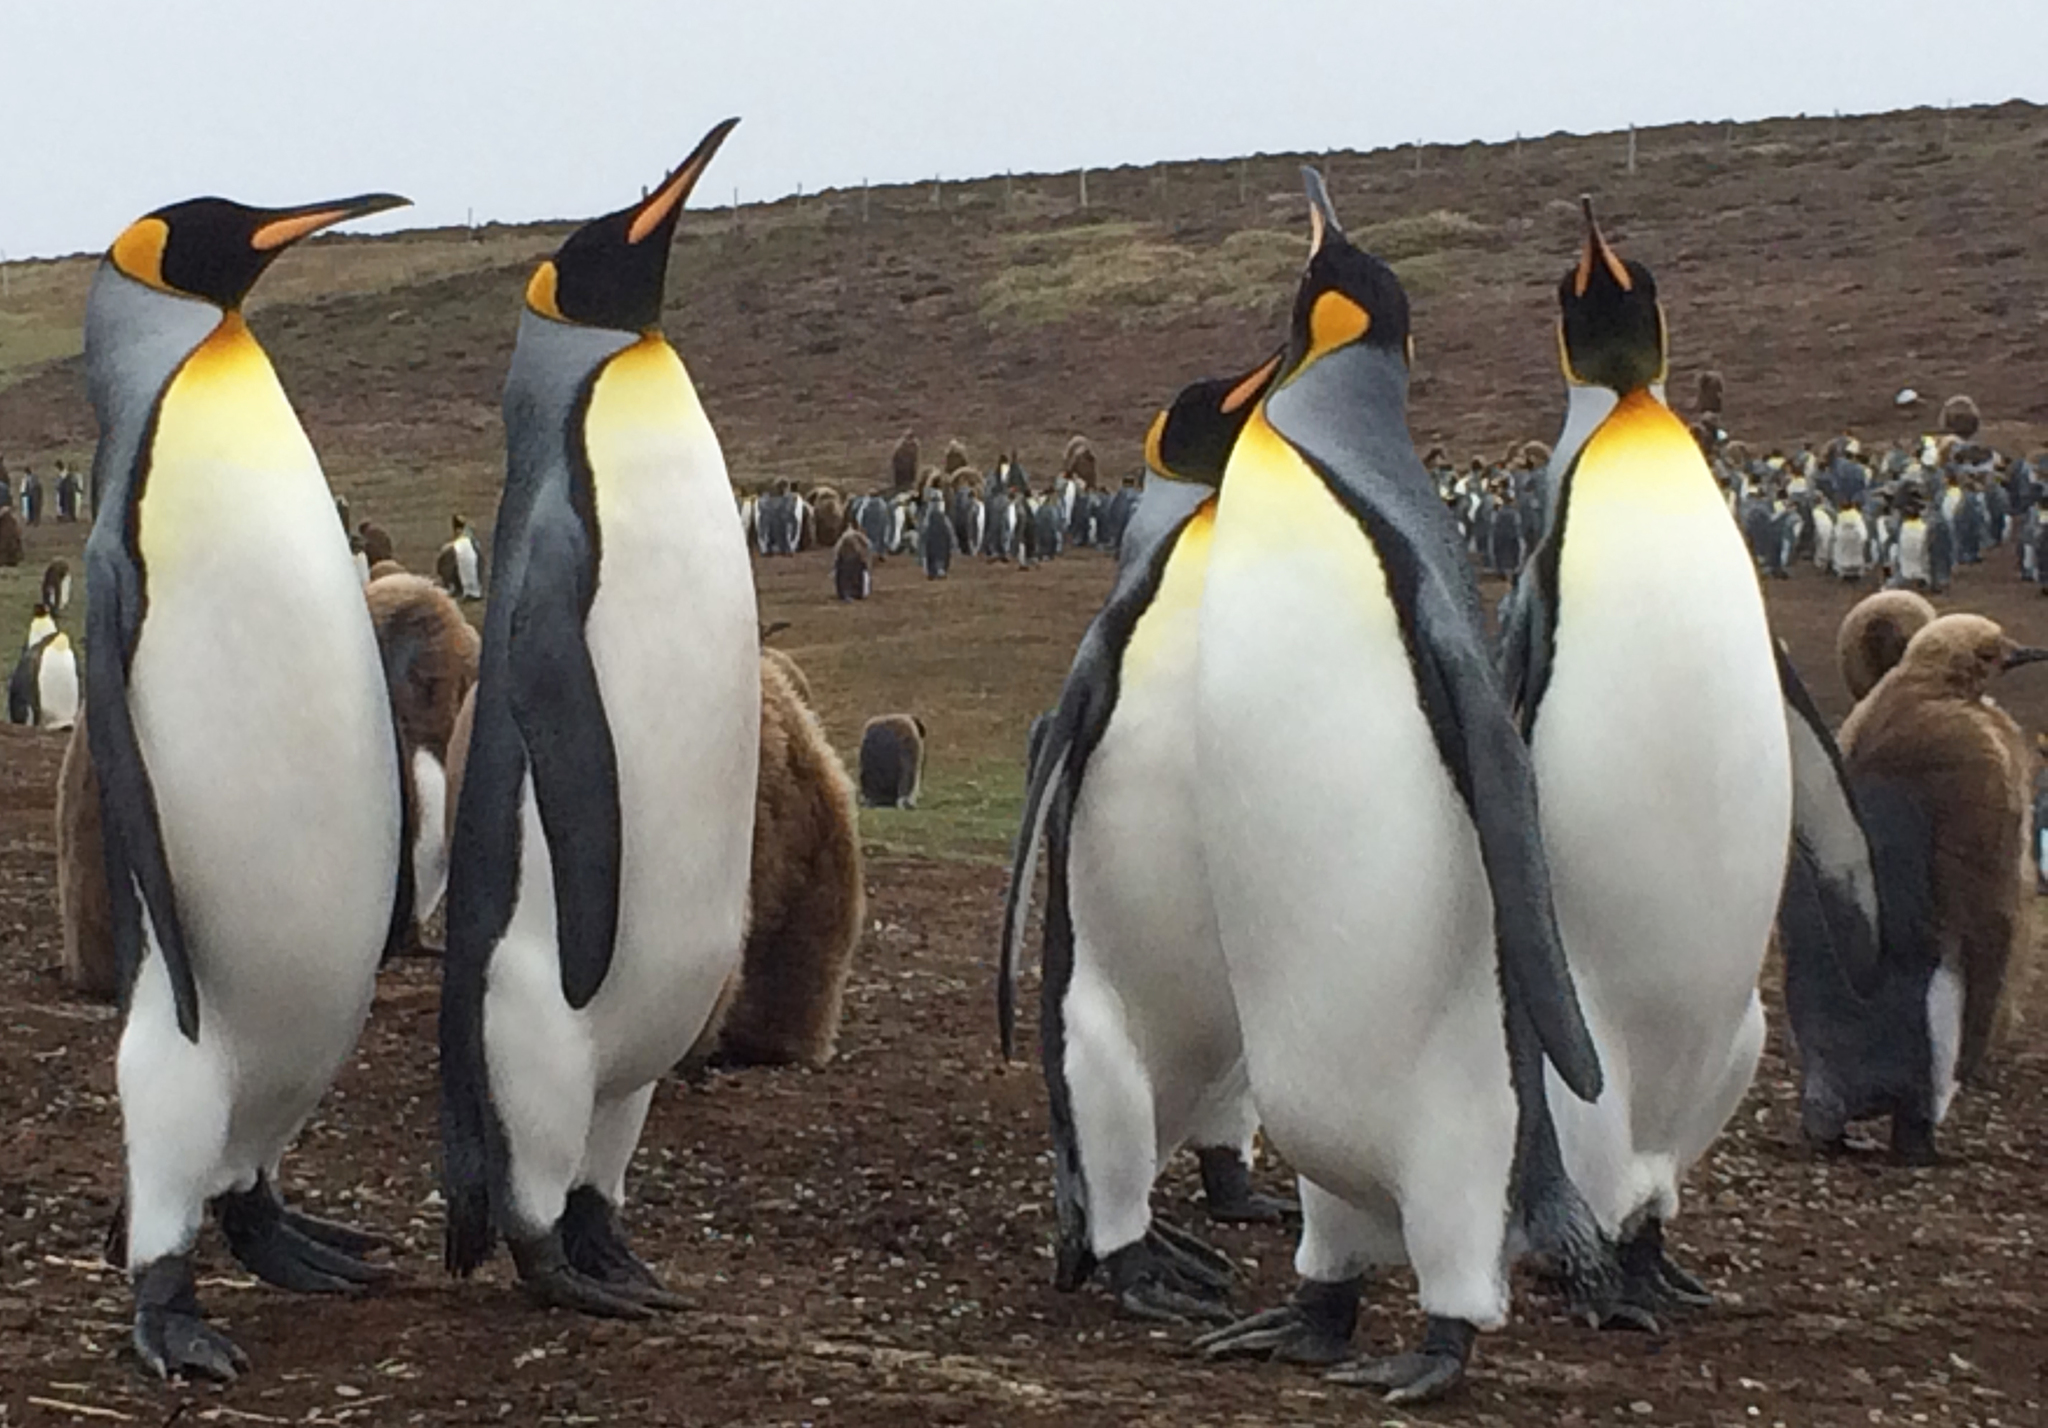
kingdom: Animalia
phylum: Chordata
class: Aves
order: Sphenisciformes
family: Spheniscidae
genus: Aptenodytes
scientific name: Aptenodytes patagonicus
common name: King penguin
